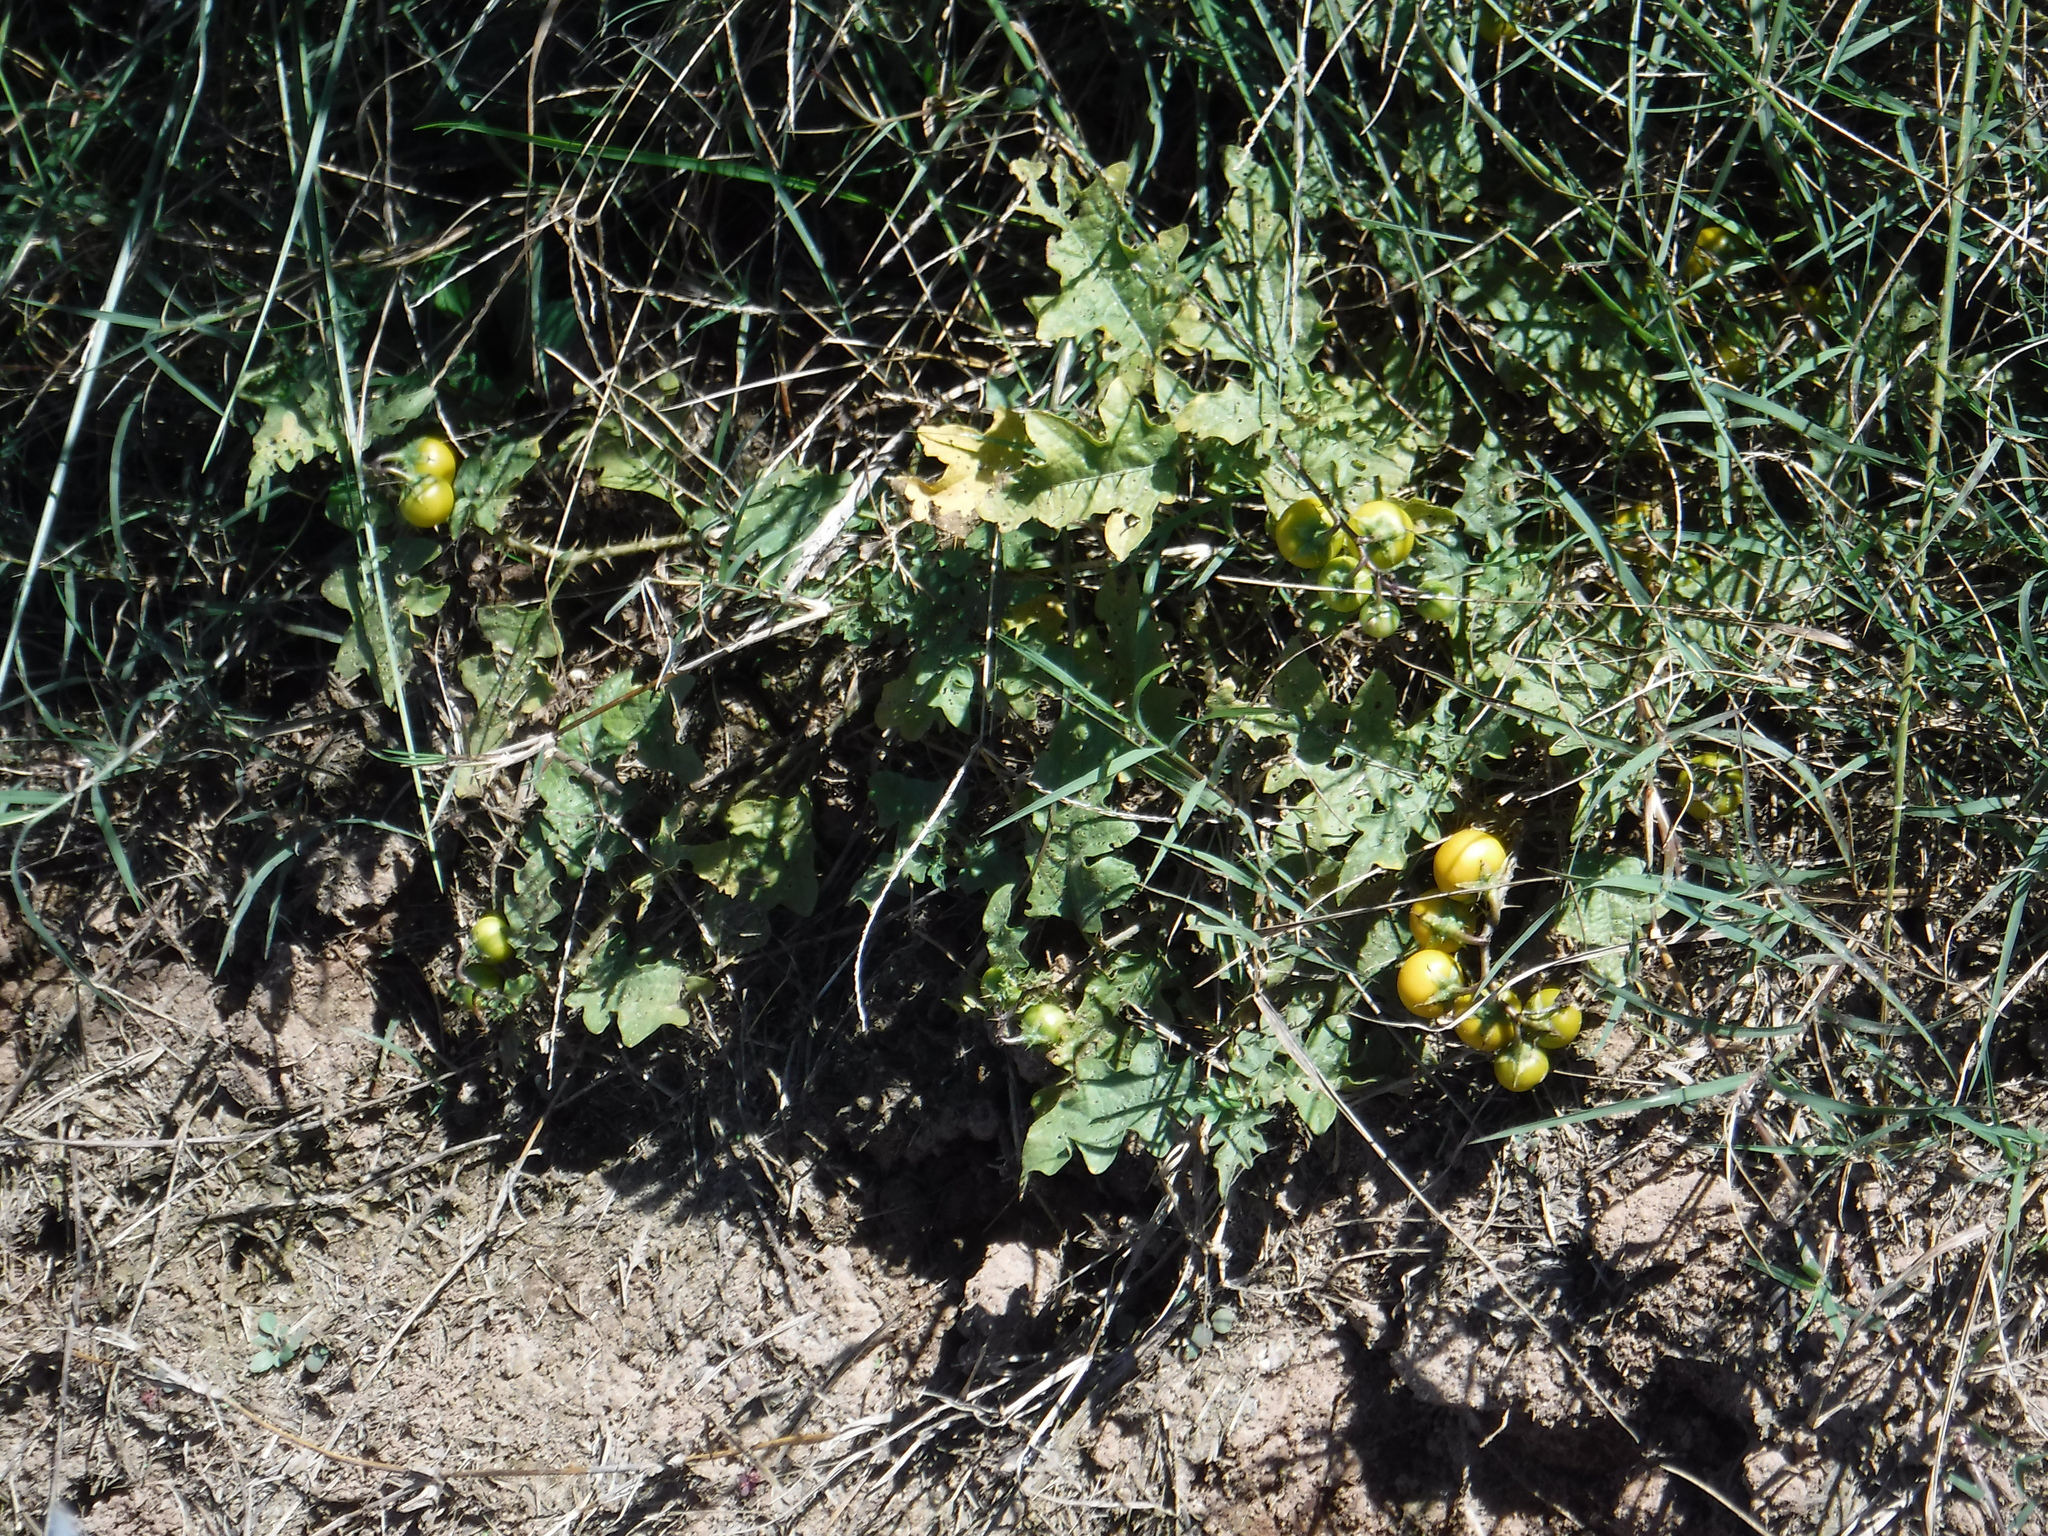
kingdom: Plantae
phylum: Tracheophyta
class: Magnoliopsida
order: Solanales
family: Solanaceae
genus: Solanum
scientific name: Solanum carolinense
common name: Horse-nettle
